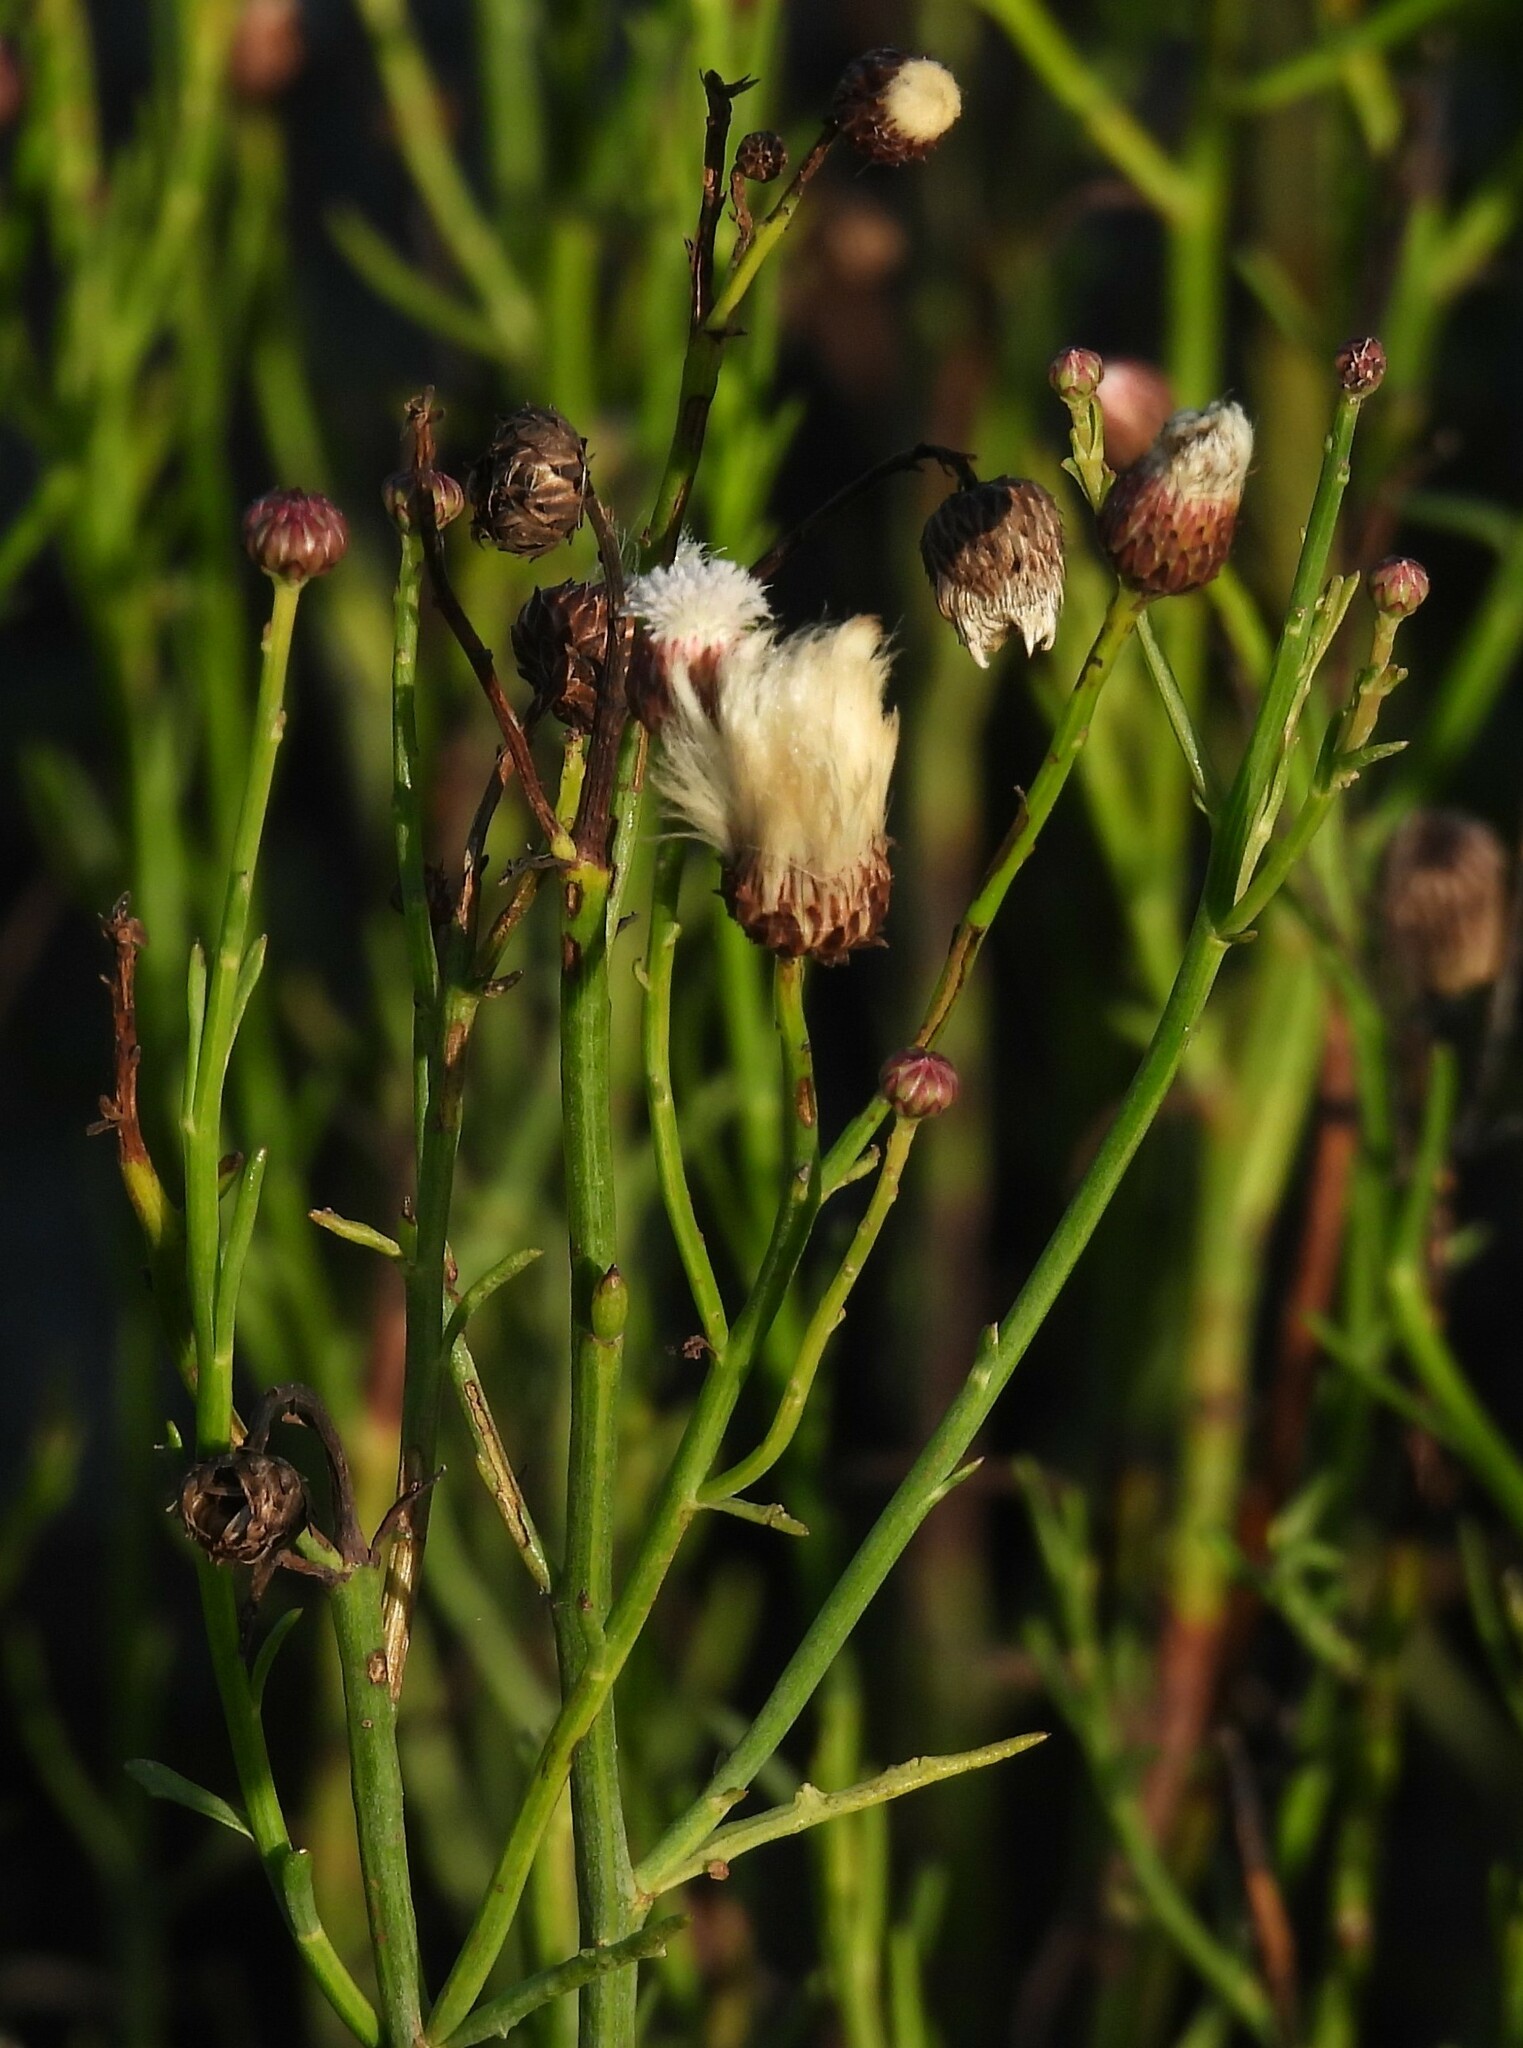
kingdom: Plantae
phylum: Tracheophyta
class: Magnoliopsida
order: Asterales
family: Asteraceae
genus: Baccharis
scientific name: Baccharis juncea
